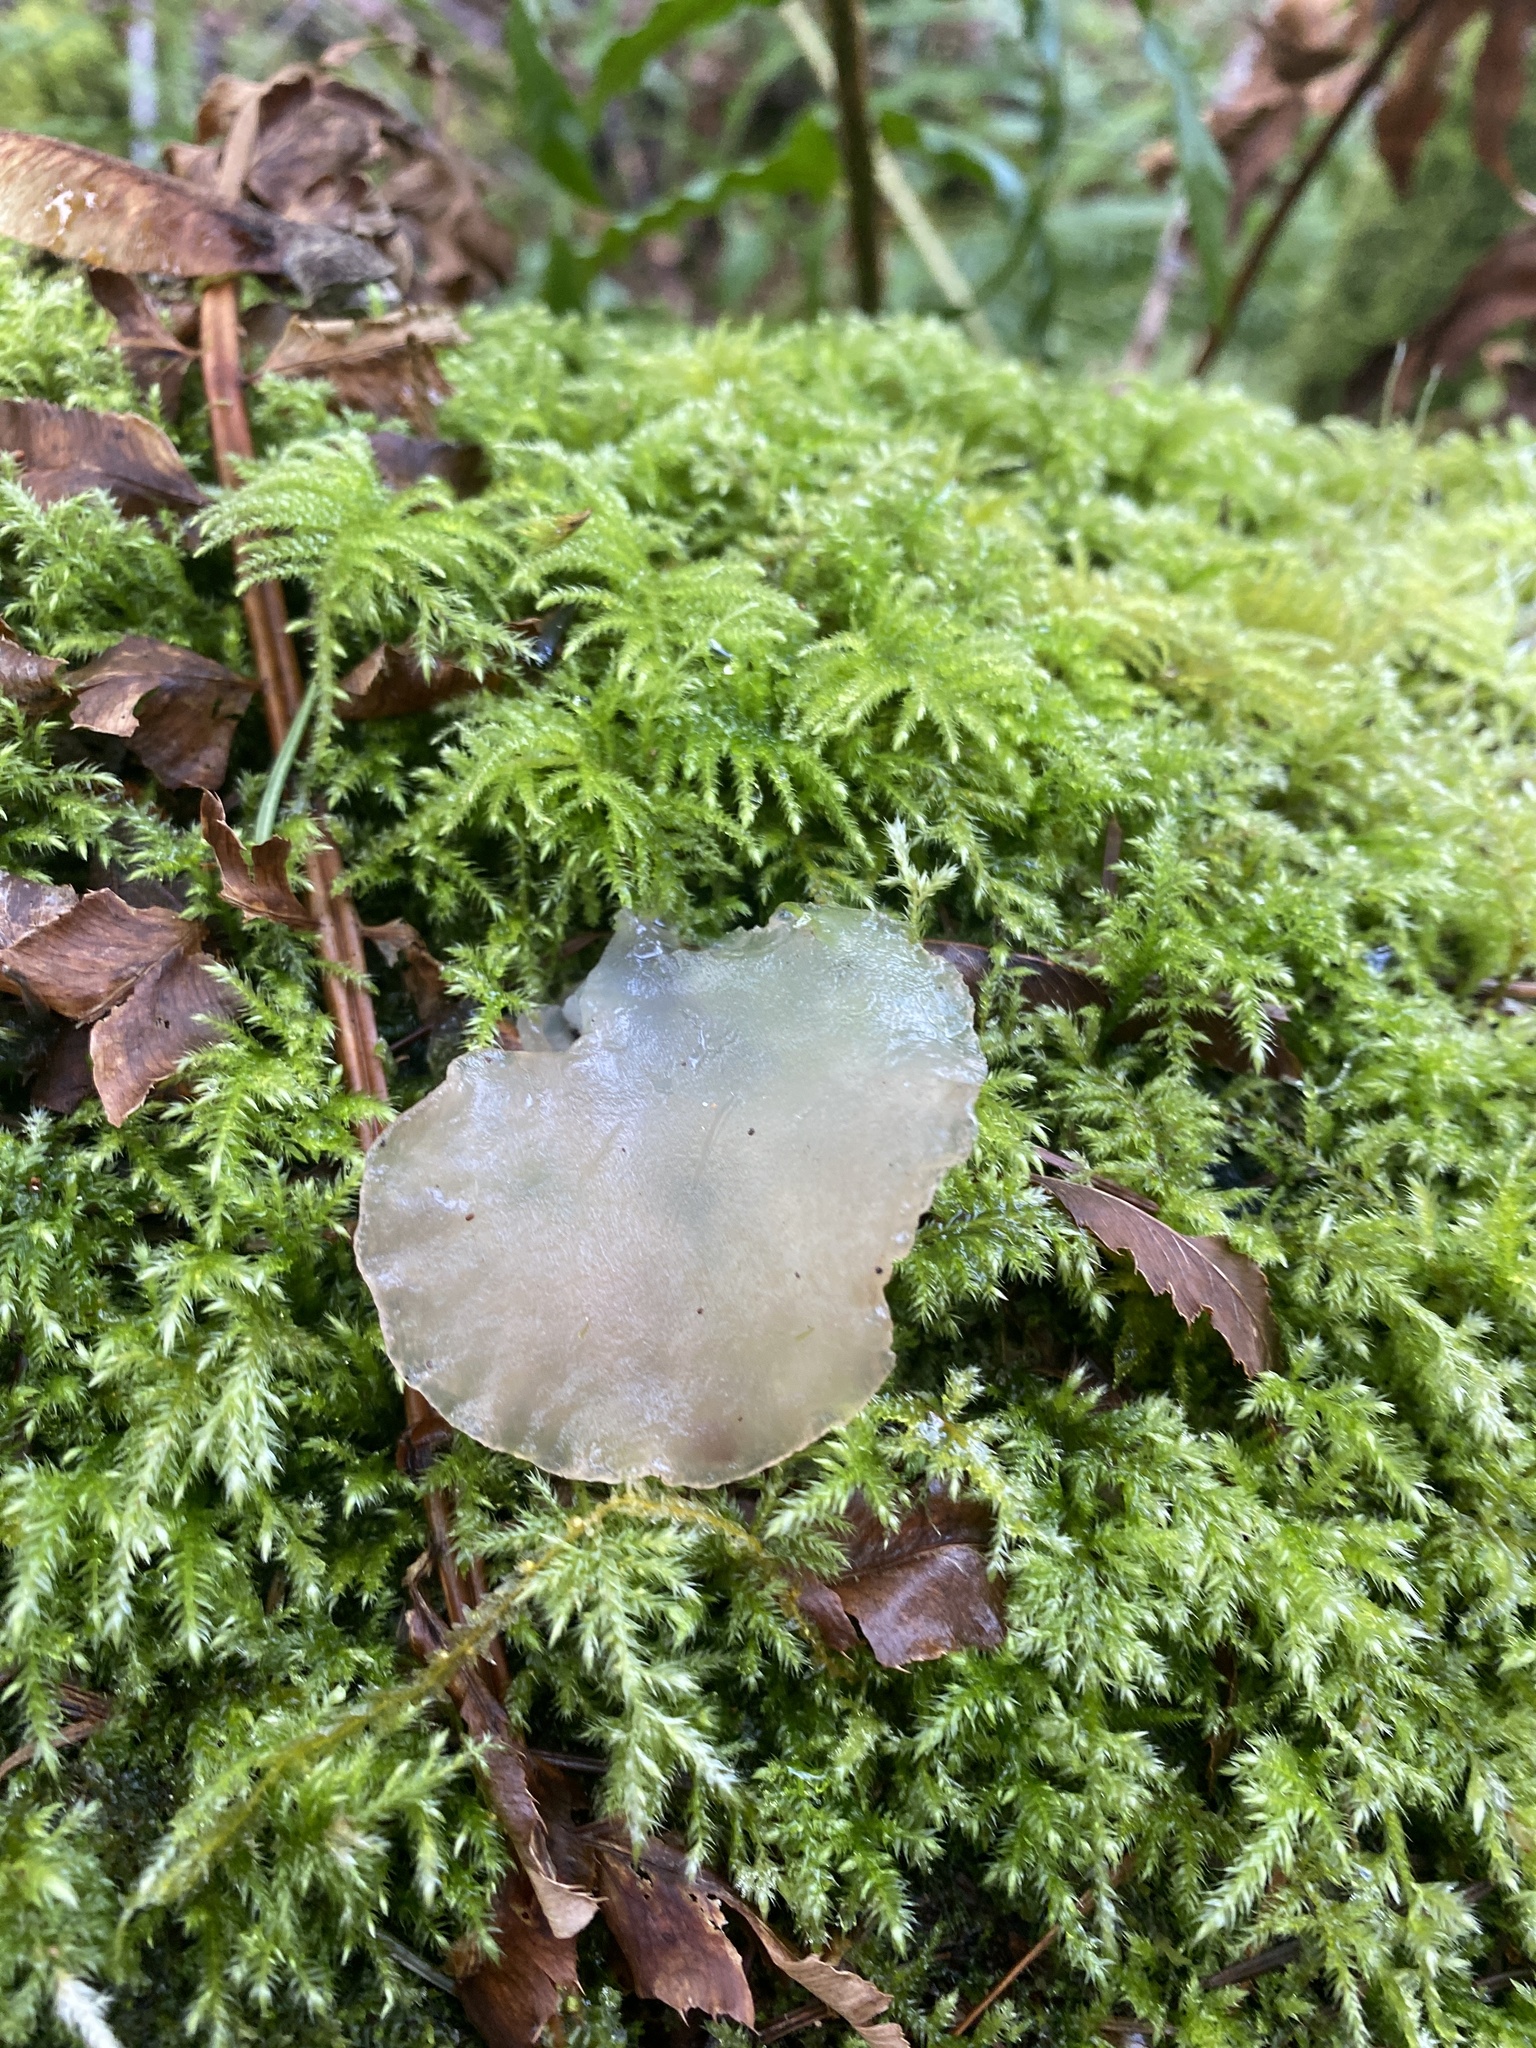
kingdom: Fungi
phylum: Basidiomycota
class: Agaricomycetes
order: Auriculariales
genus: Pseudohydnum
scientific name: Pseudohydnum gelatinosum
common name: Jelly tongue
